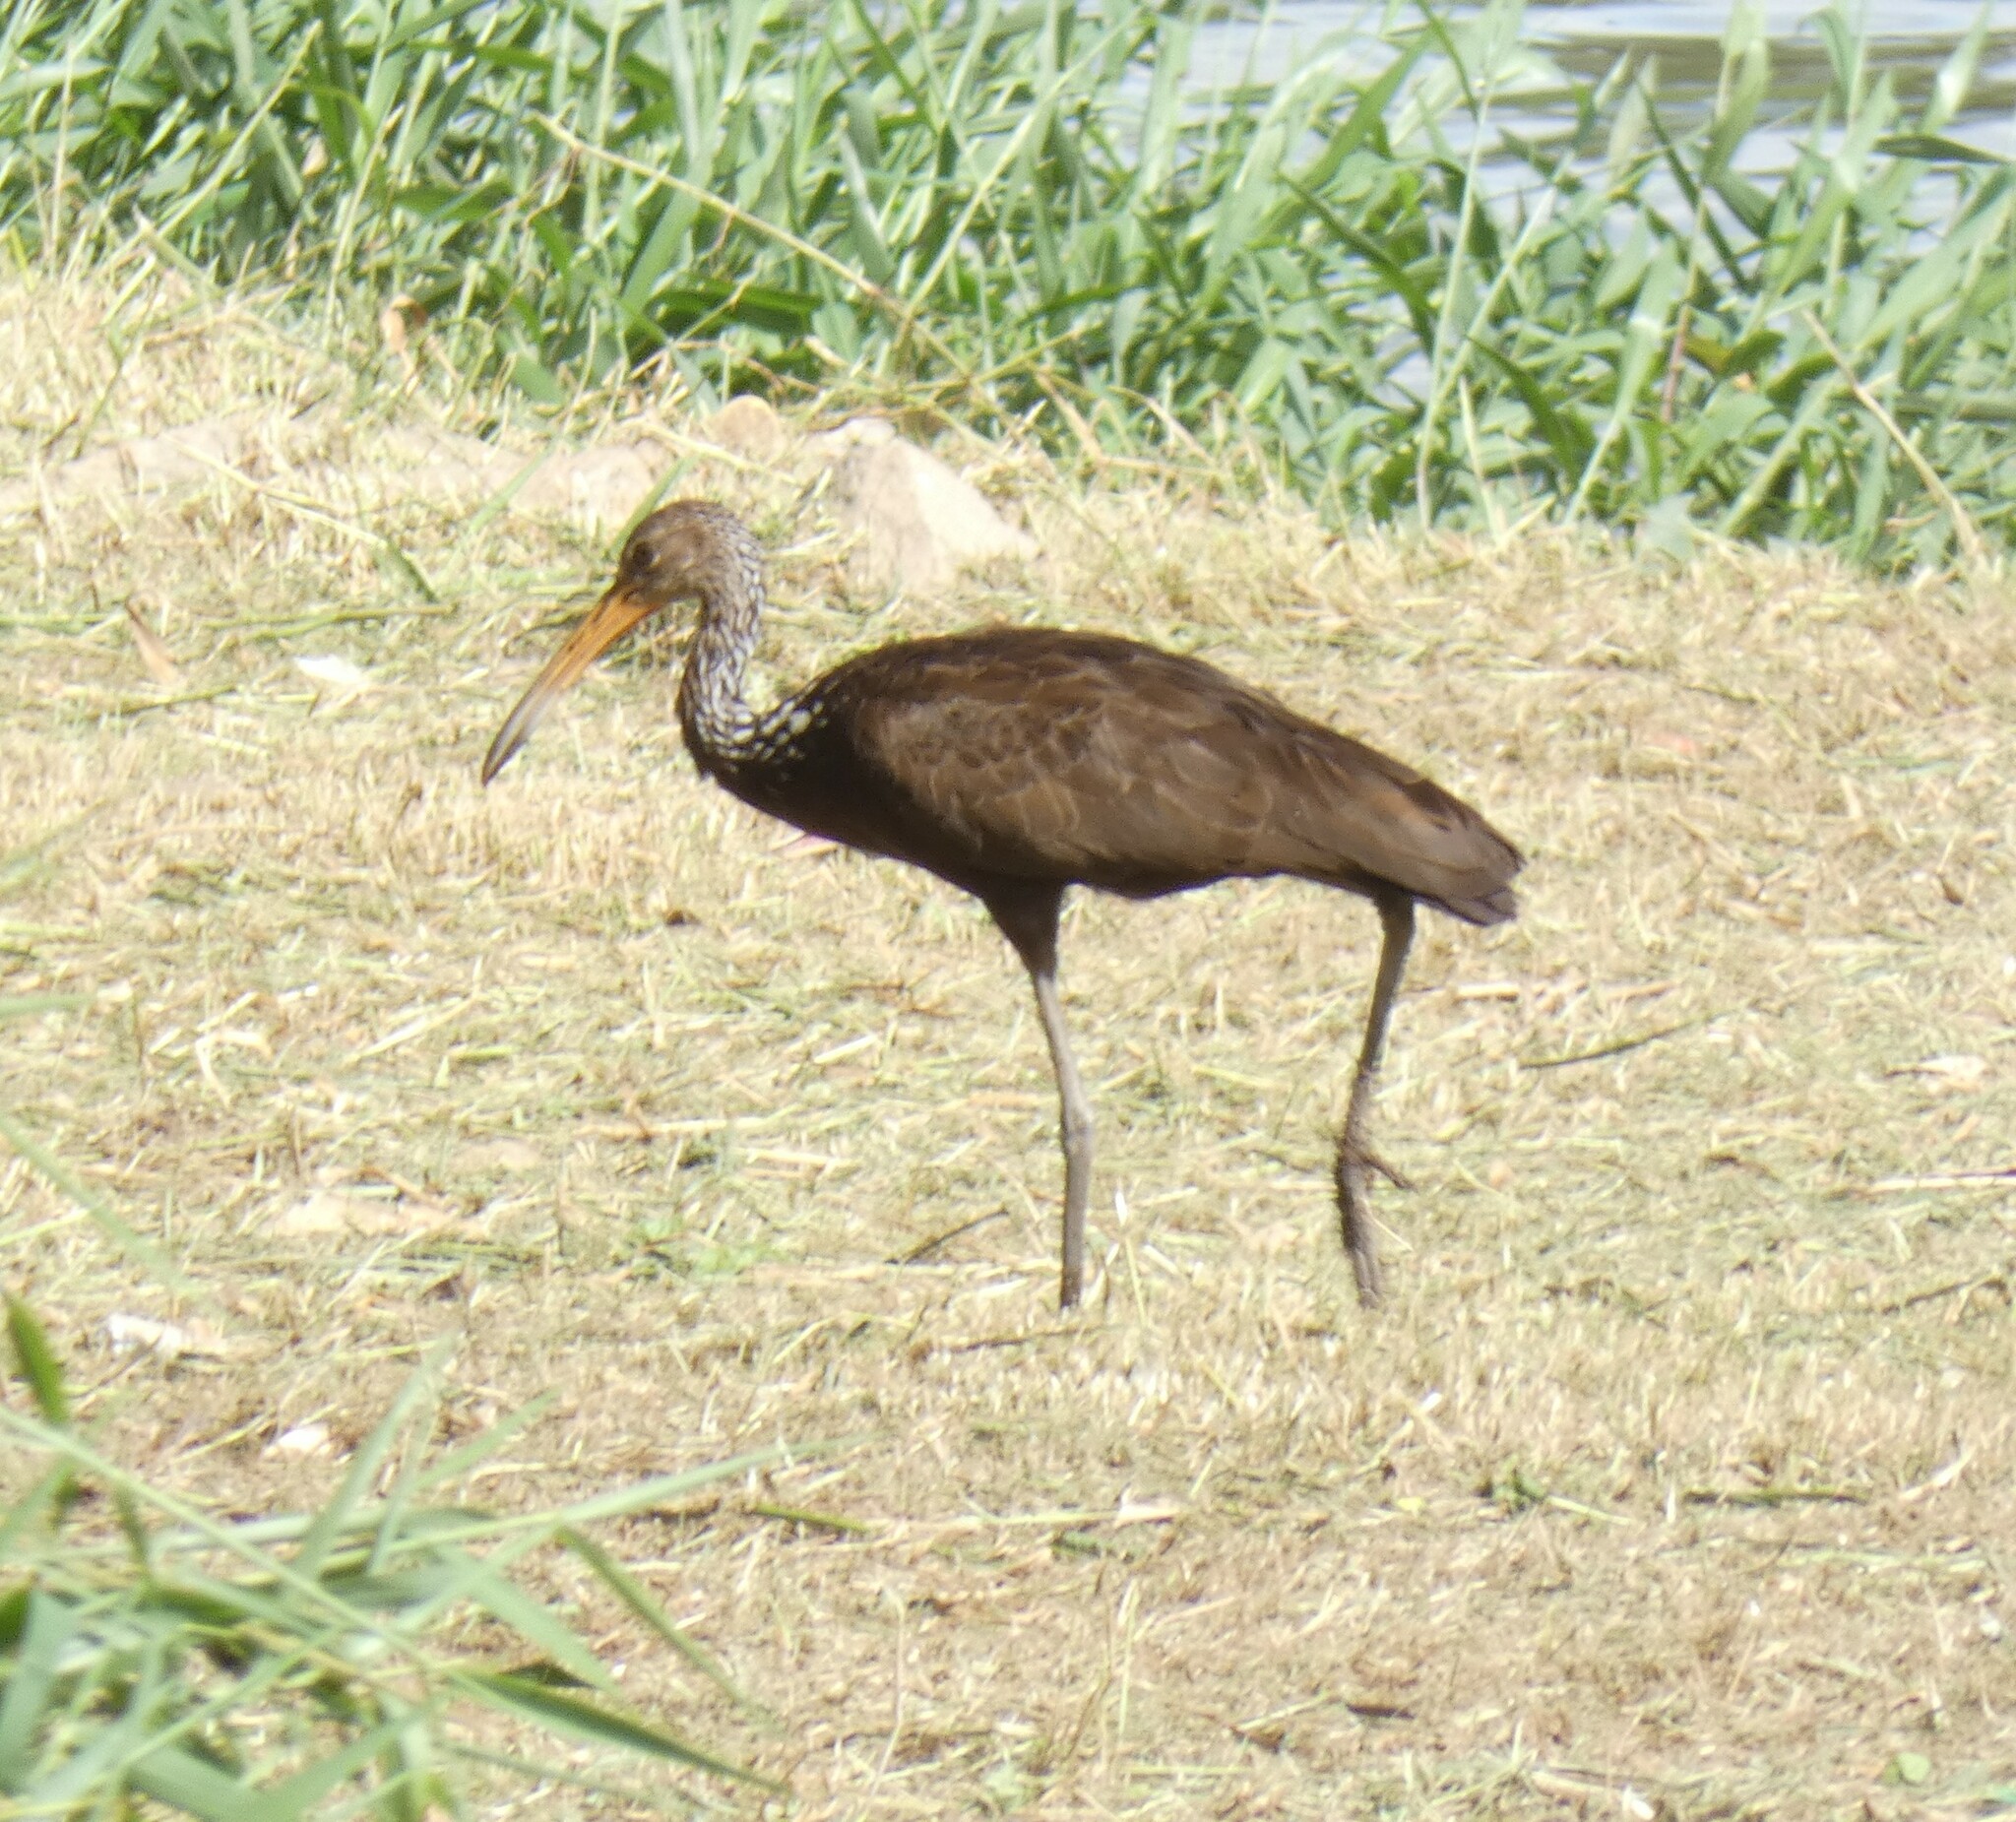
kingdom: Animalia
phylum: Chordata
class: Aves
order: Gruiformes
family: Aramidae
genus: Aramus
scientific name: Aramus guarauna
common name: Limpkin
